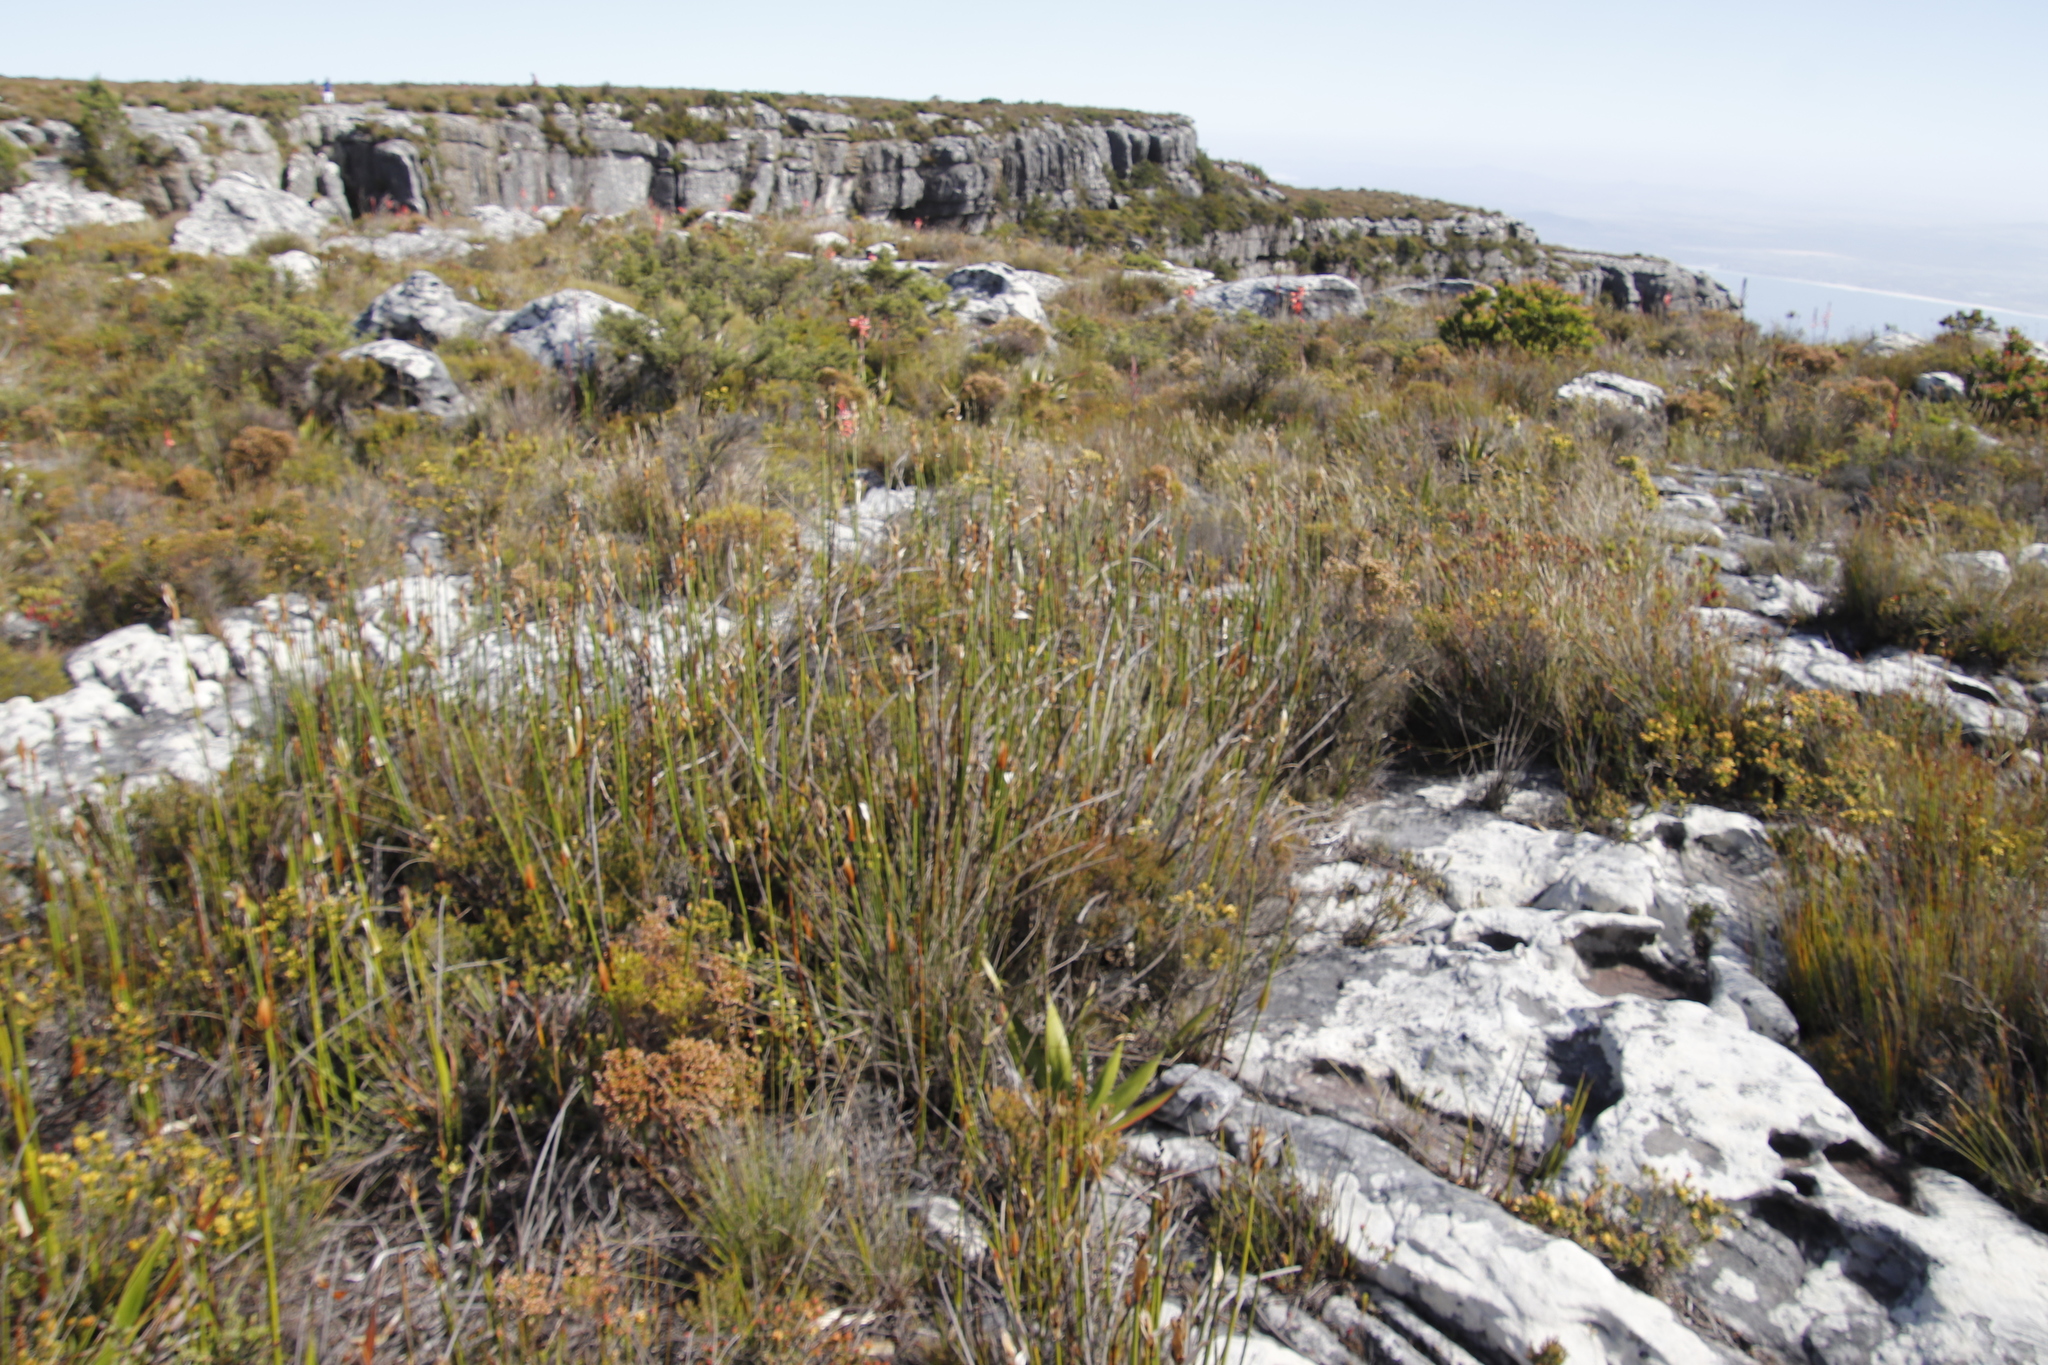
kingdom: Plantae
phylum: Tracheophyta
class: Liliopsida
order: Poales
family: Restionaceae
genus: Elegia
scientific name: Elegia mucronata
